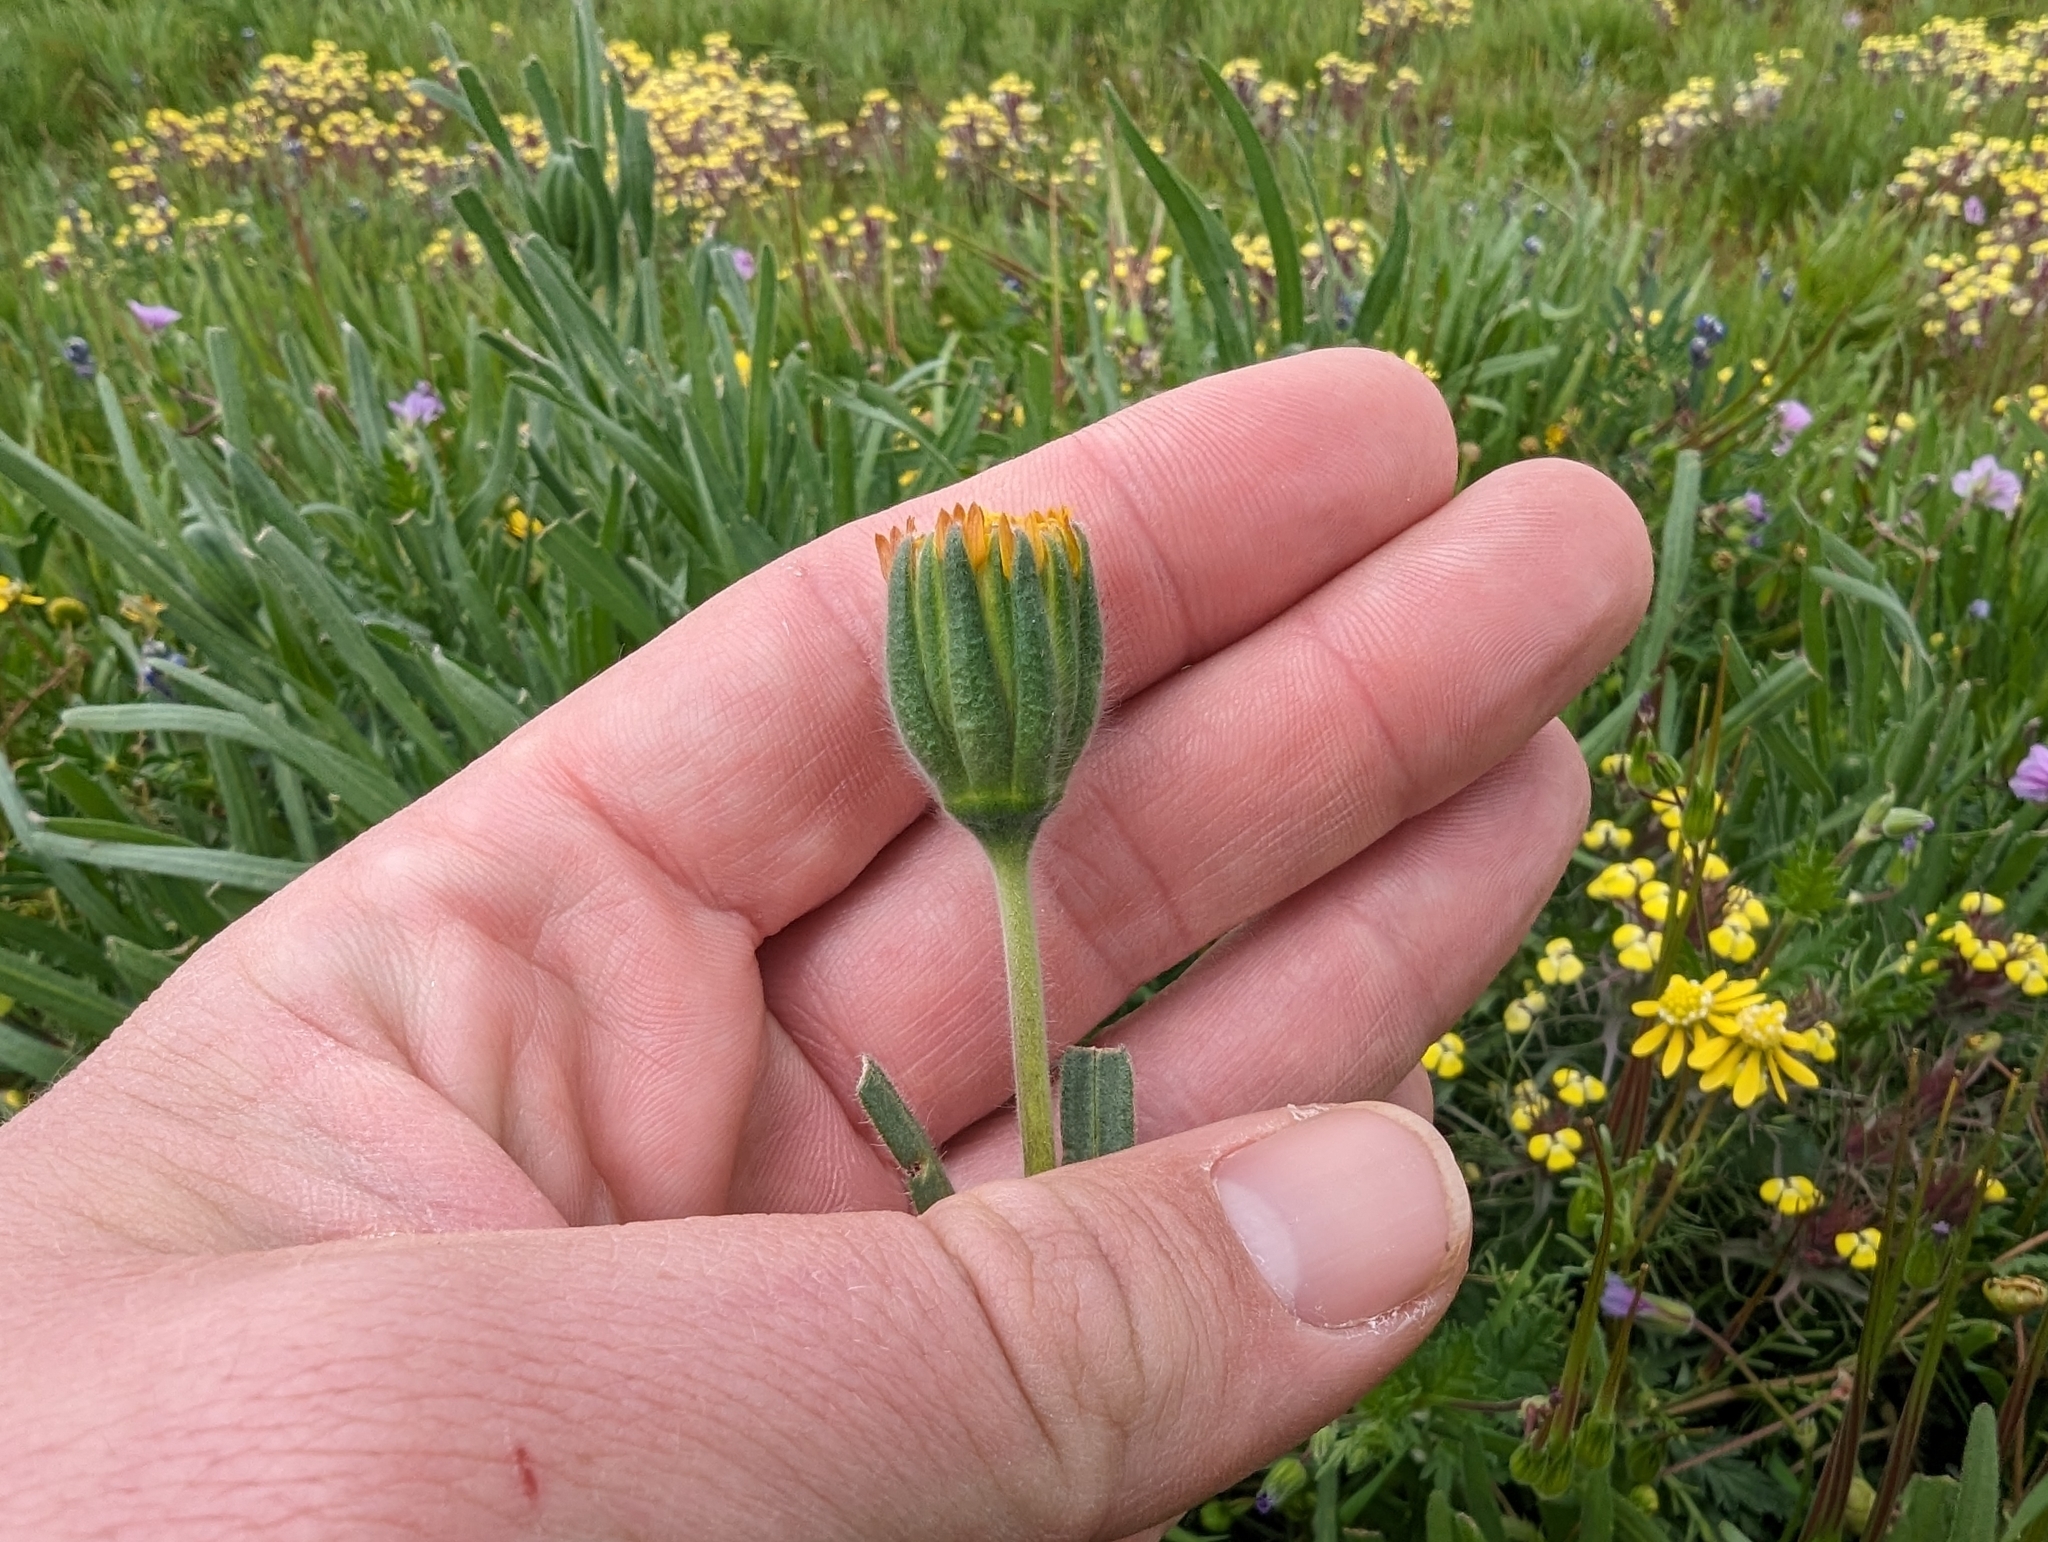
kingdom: Plantae
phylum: Tracheophyta
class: Magnoliopsida
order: Asterales
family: Asteraceae
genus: Achyrachaena
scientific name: Achyrachaena mollis
